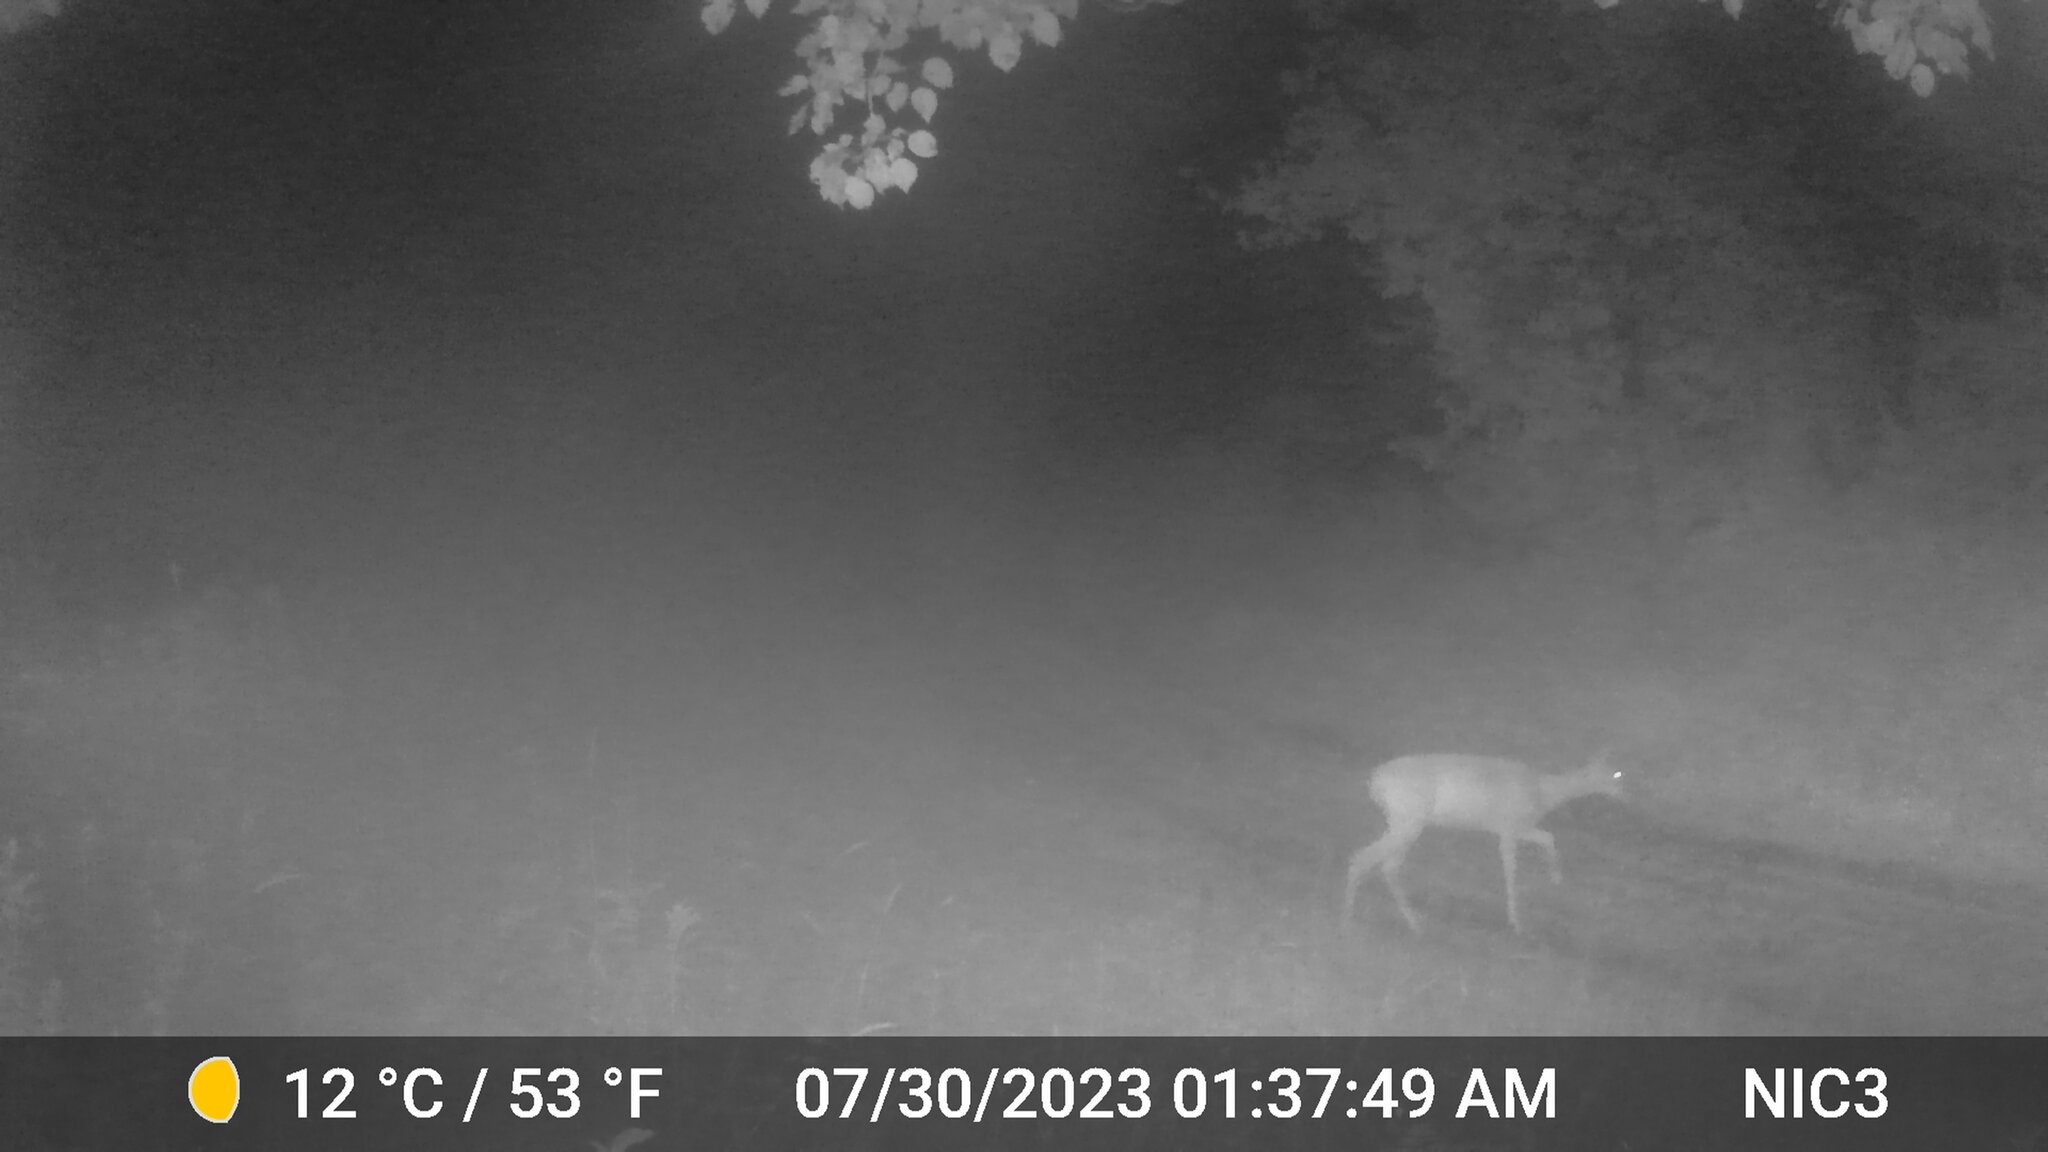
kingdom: Animalia
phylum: Chordata
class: Mammalia
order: Artiodactyla
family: Cervidae
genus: Odocoileus
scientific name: Odocoileus virginianus
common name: White-tailed deer
